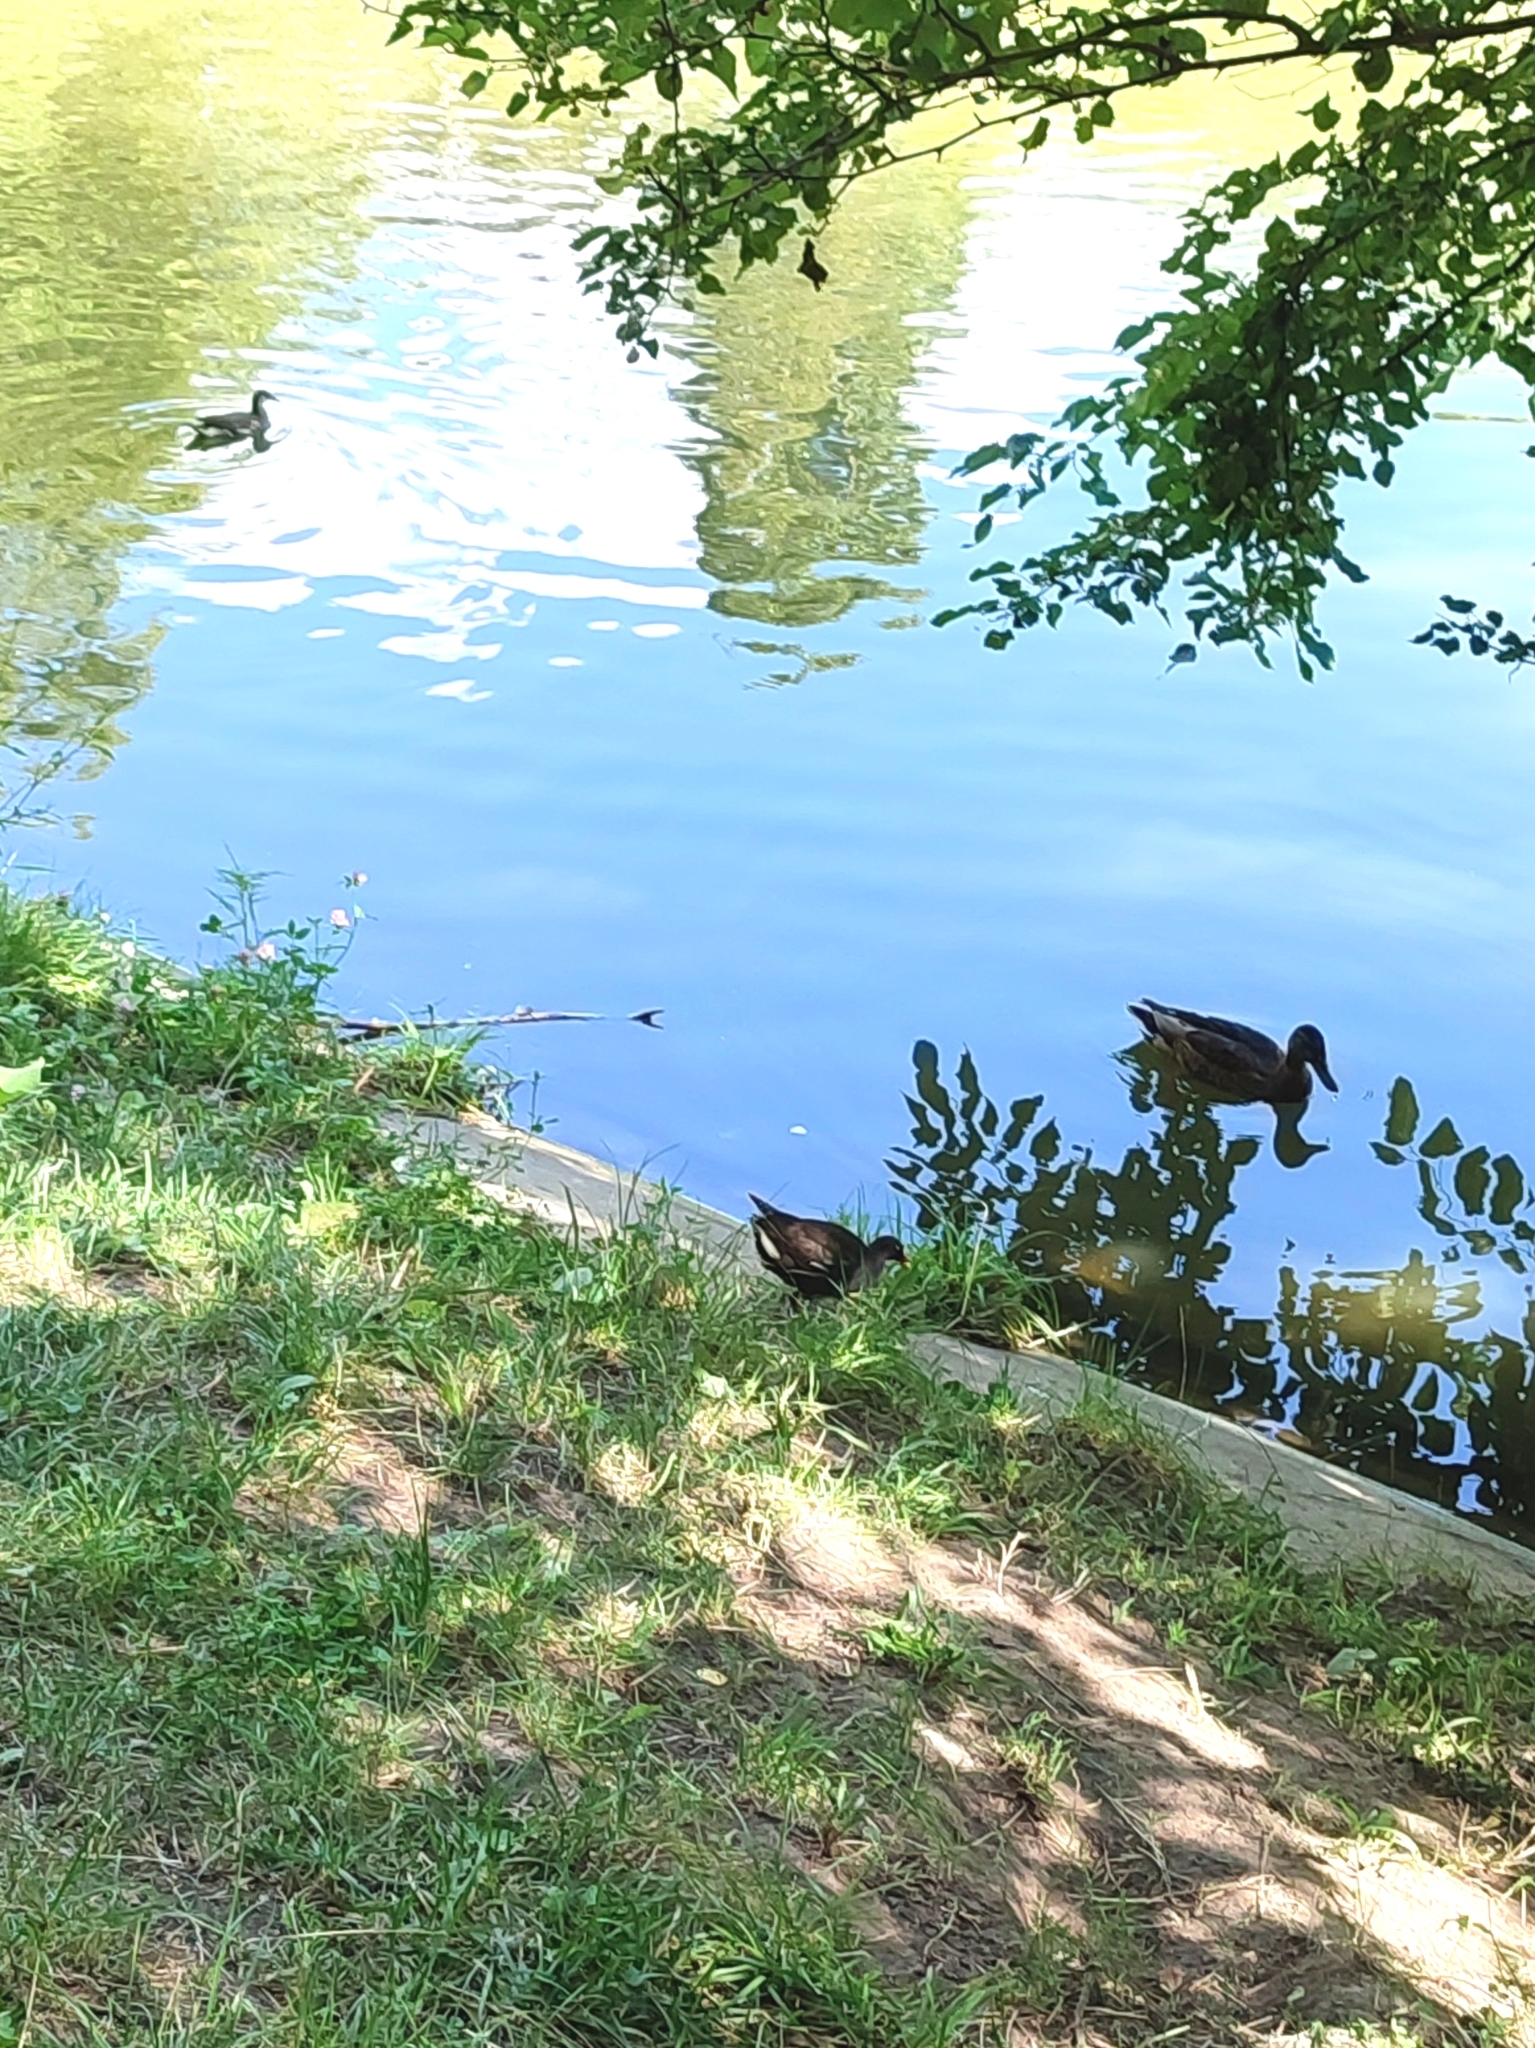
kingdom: Animalia
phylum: Chordata
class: Aves
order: Gruiformes
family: Rallidae
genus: Gallinula
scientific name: Gallinula chloropus
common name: Common moorhen
